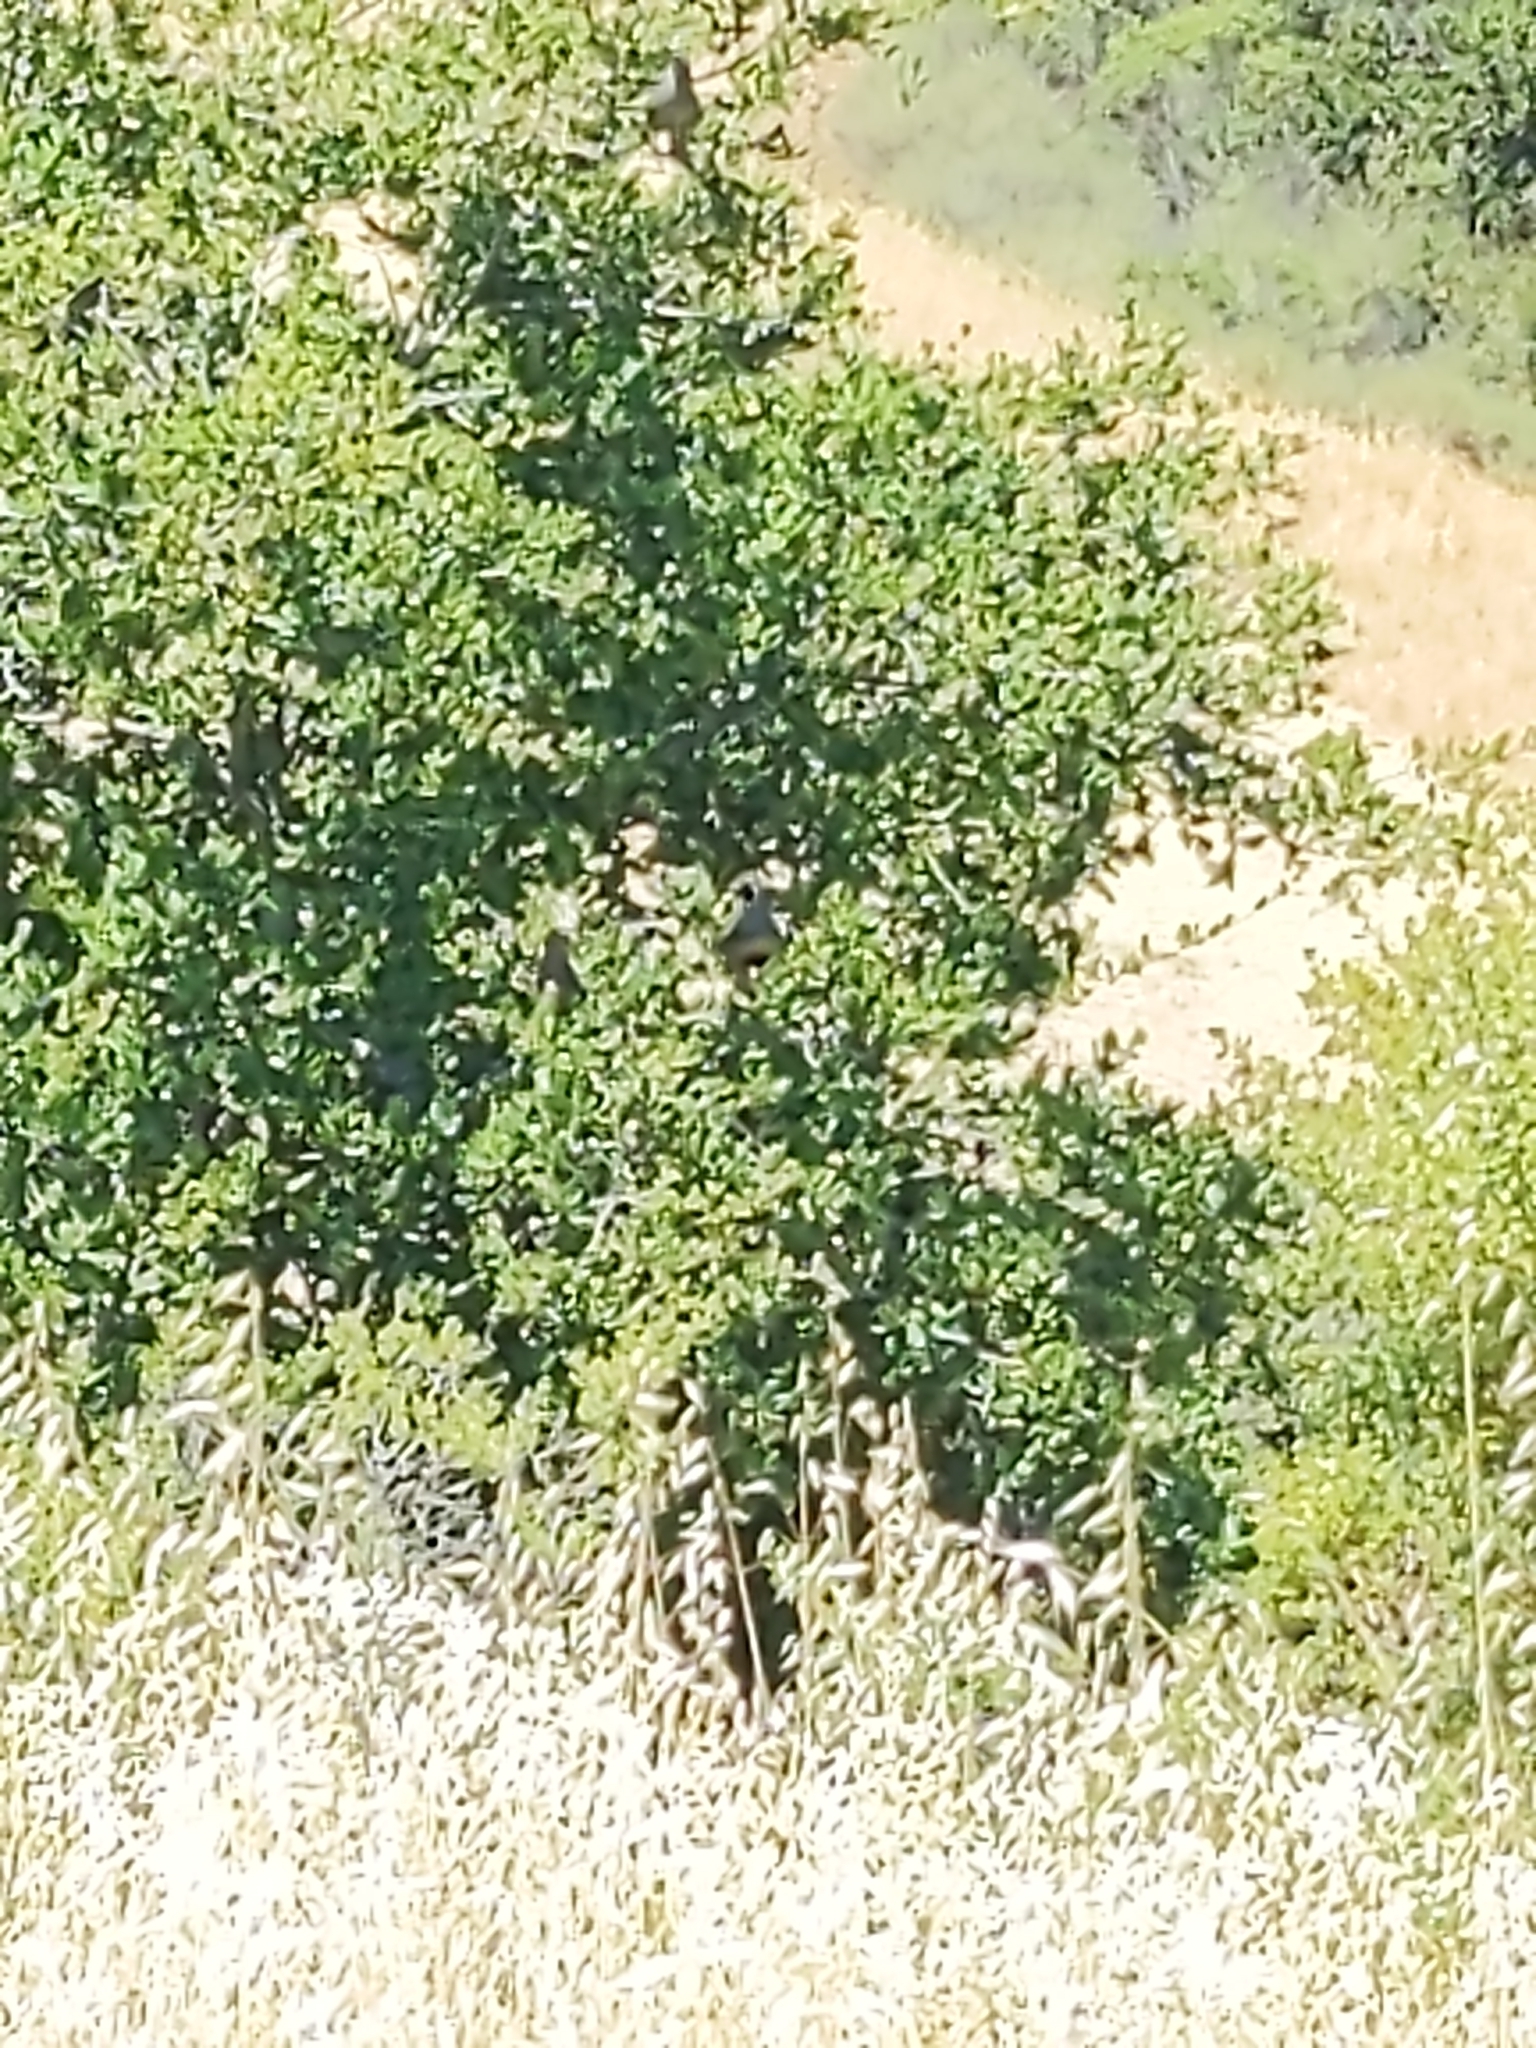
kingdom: Animalia
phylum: Chordata
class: Aves
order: Galliformes
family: Odontophoridae
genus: Callipepla
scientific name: Callipepla californica
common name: California quail
